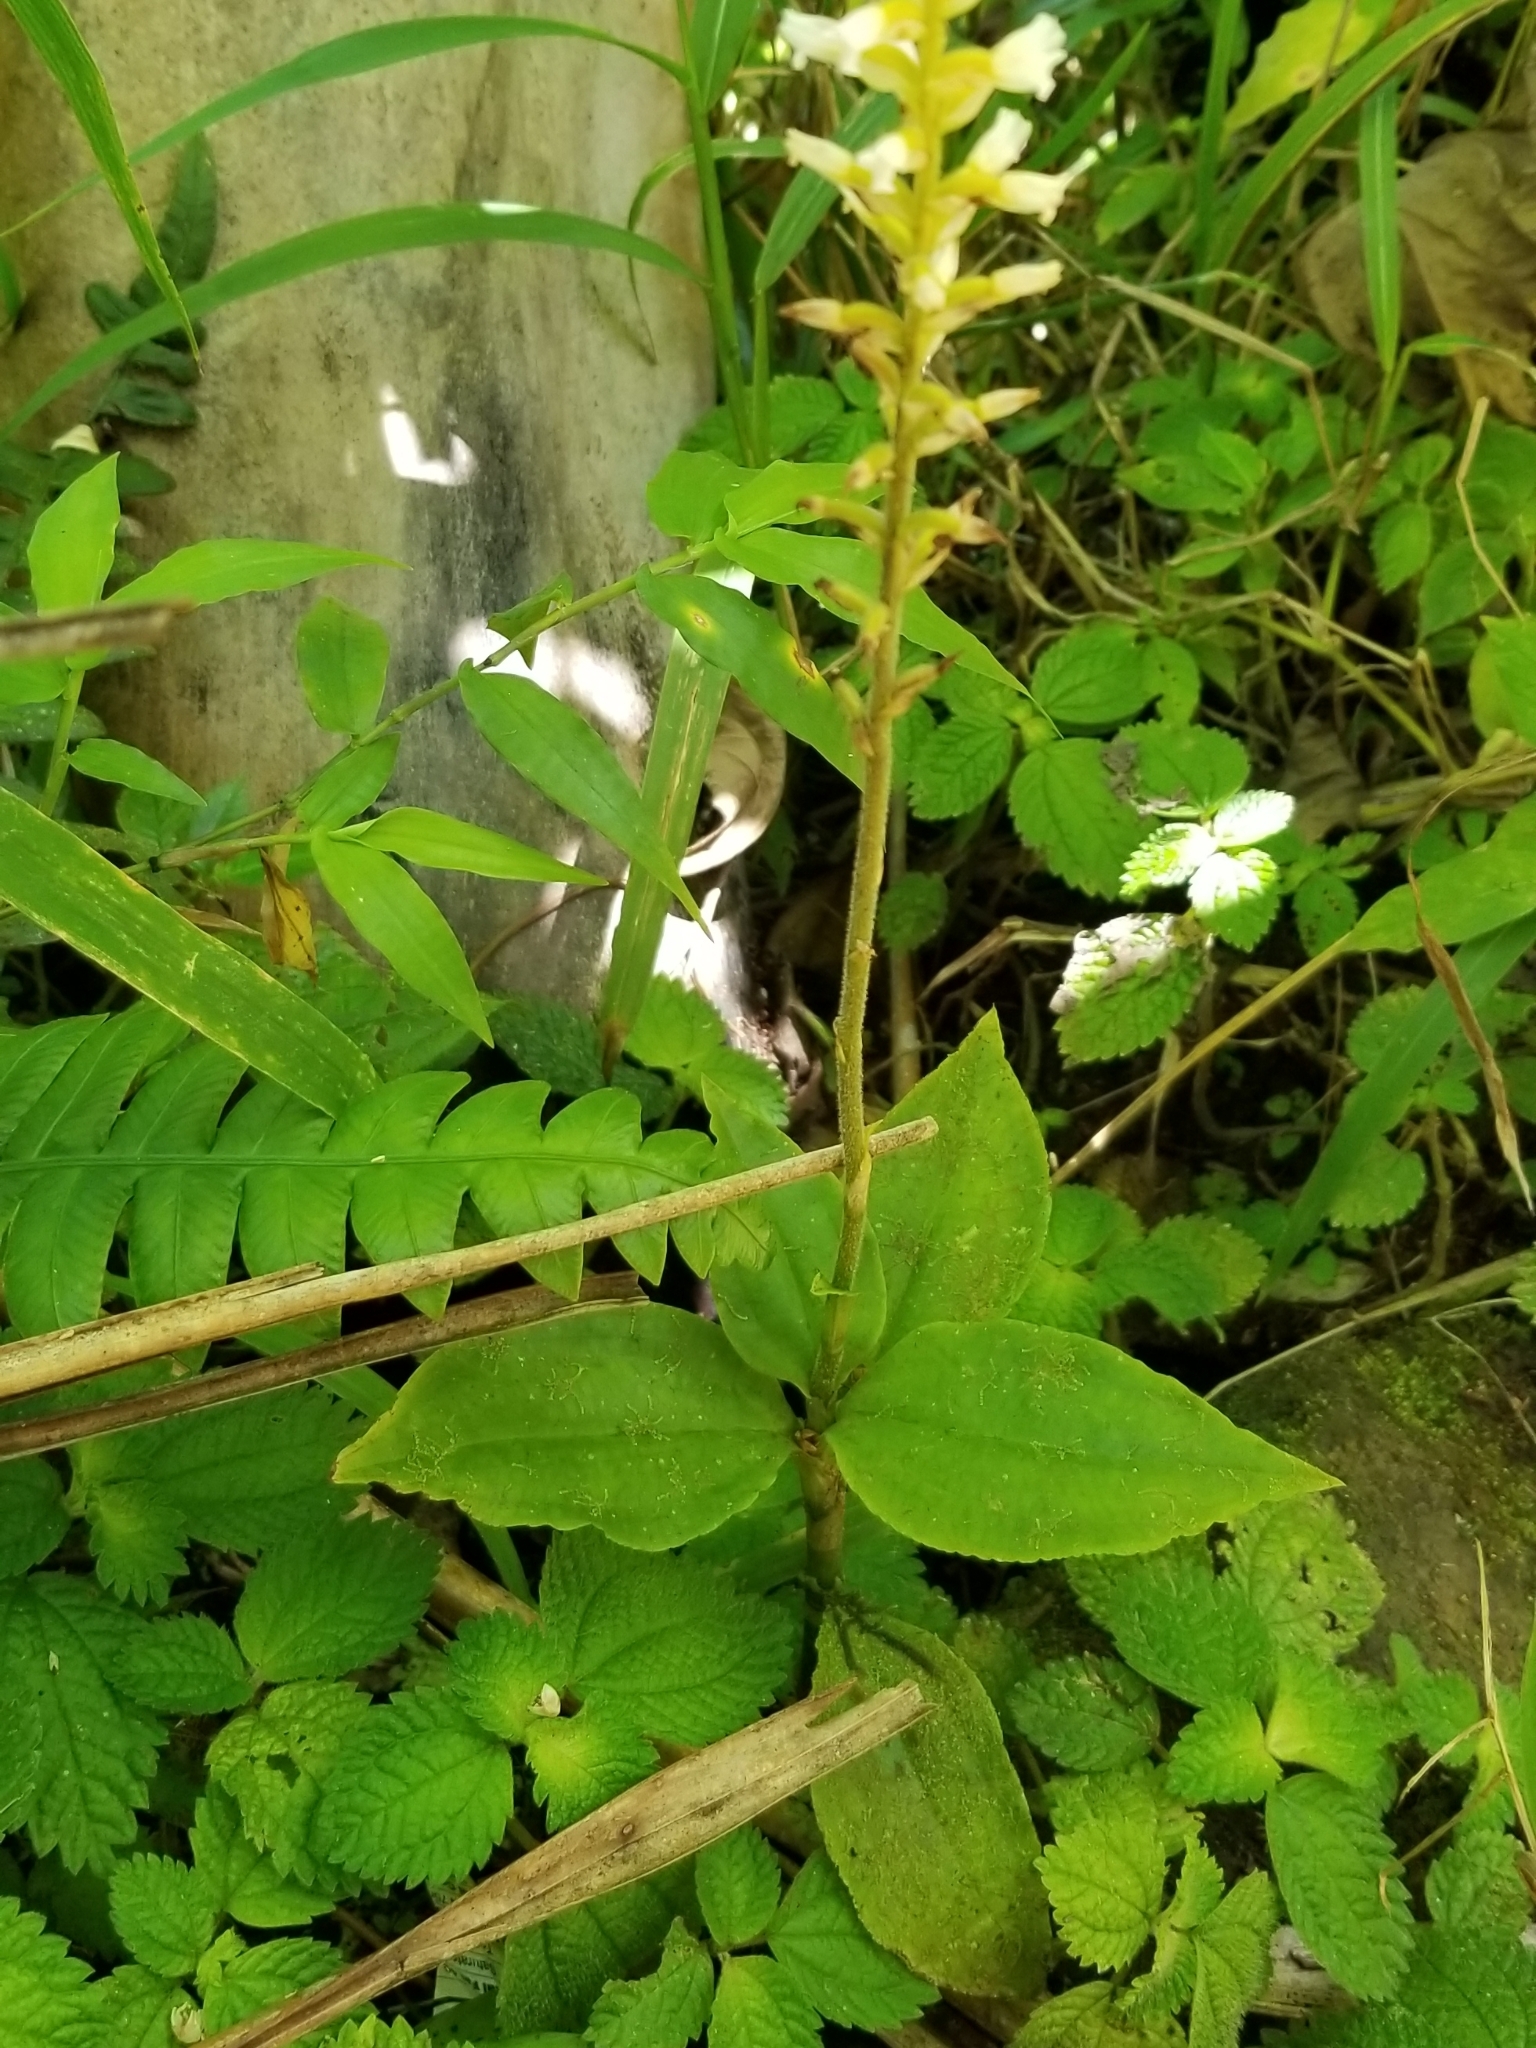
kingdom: Plantae
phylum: Tracheophyta
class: Liliopsida
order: Asparagales
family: Orchidaceae
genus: Microchilus
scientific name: Microchilus plantagineus
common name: Caribbean false helmetorchid
